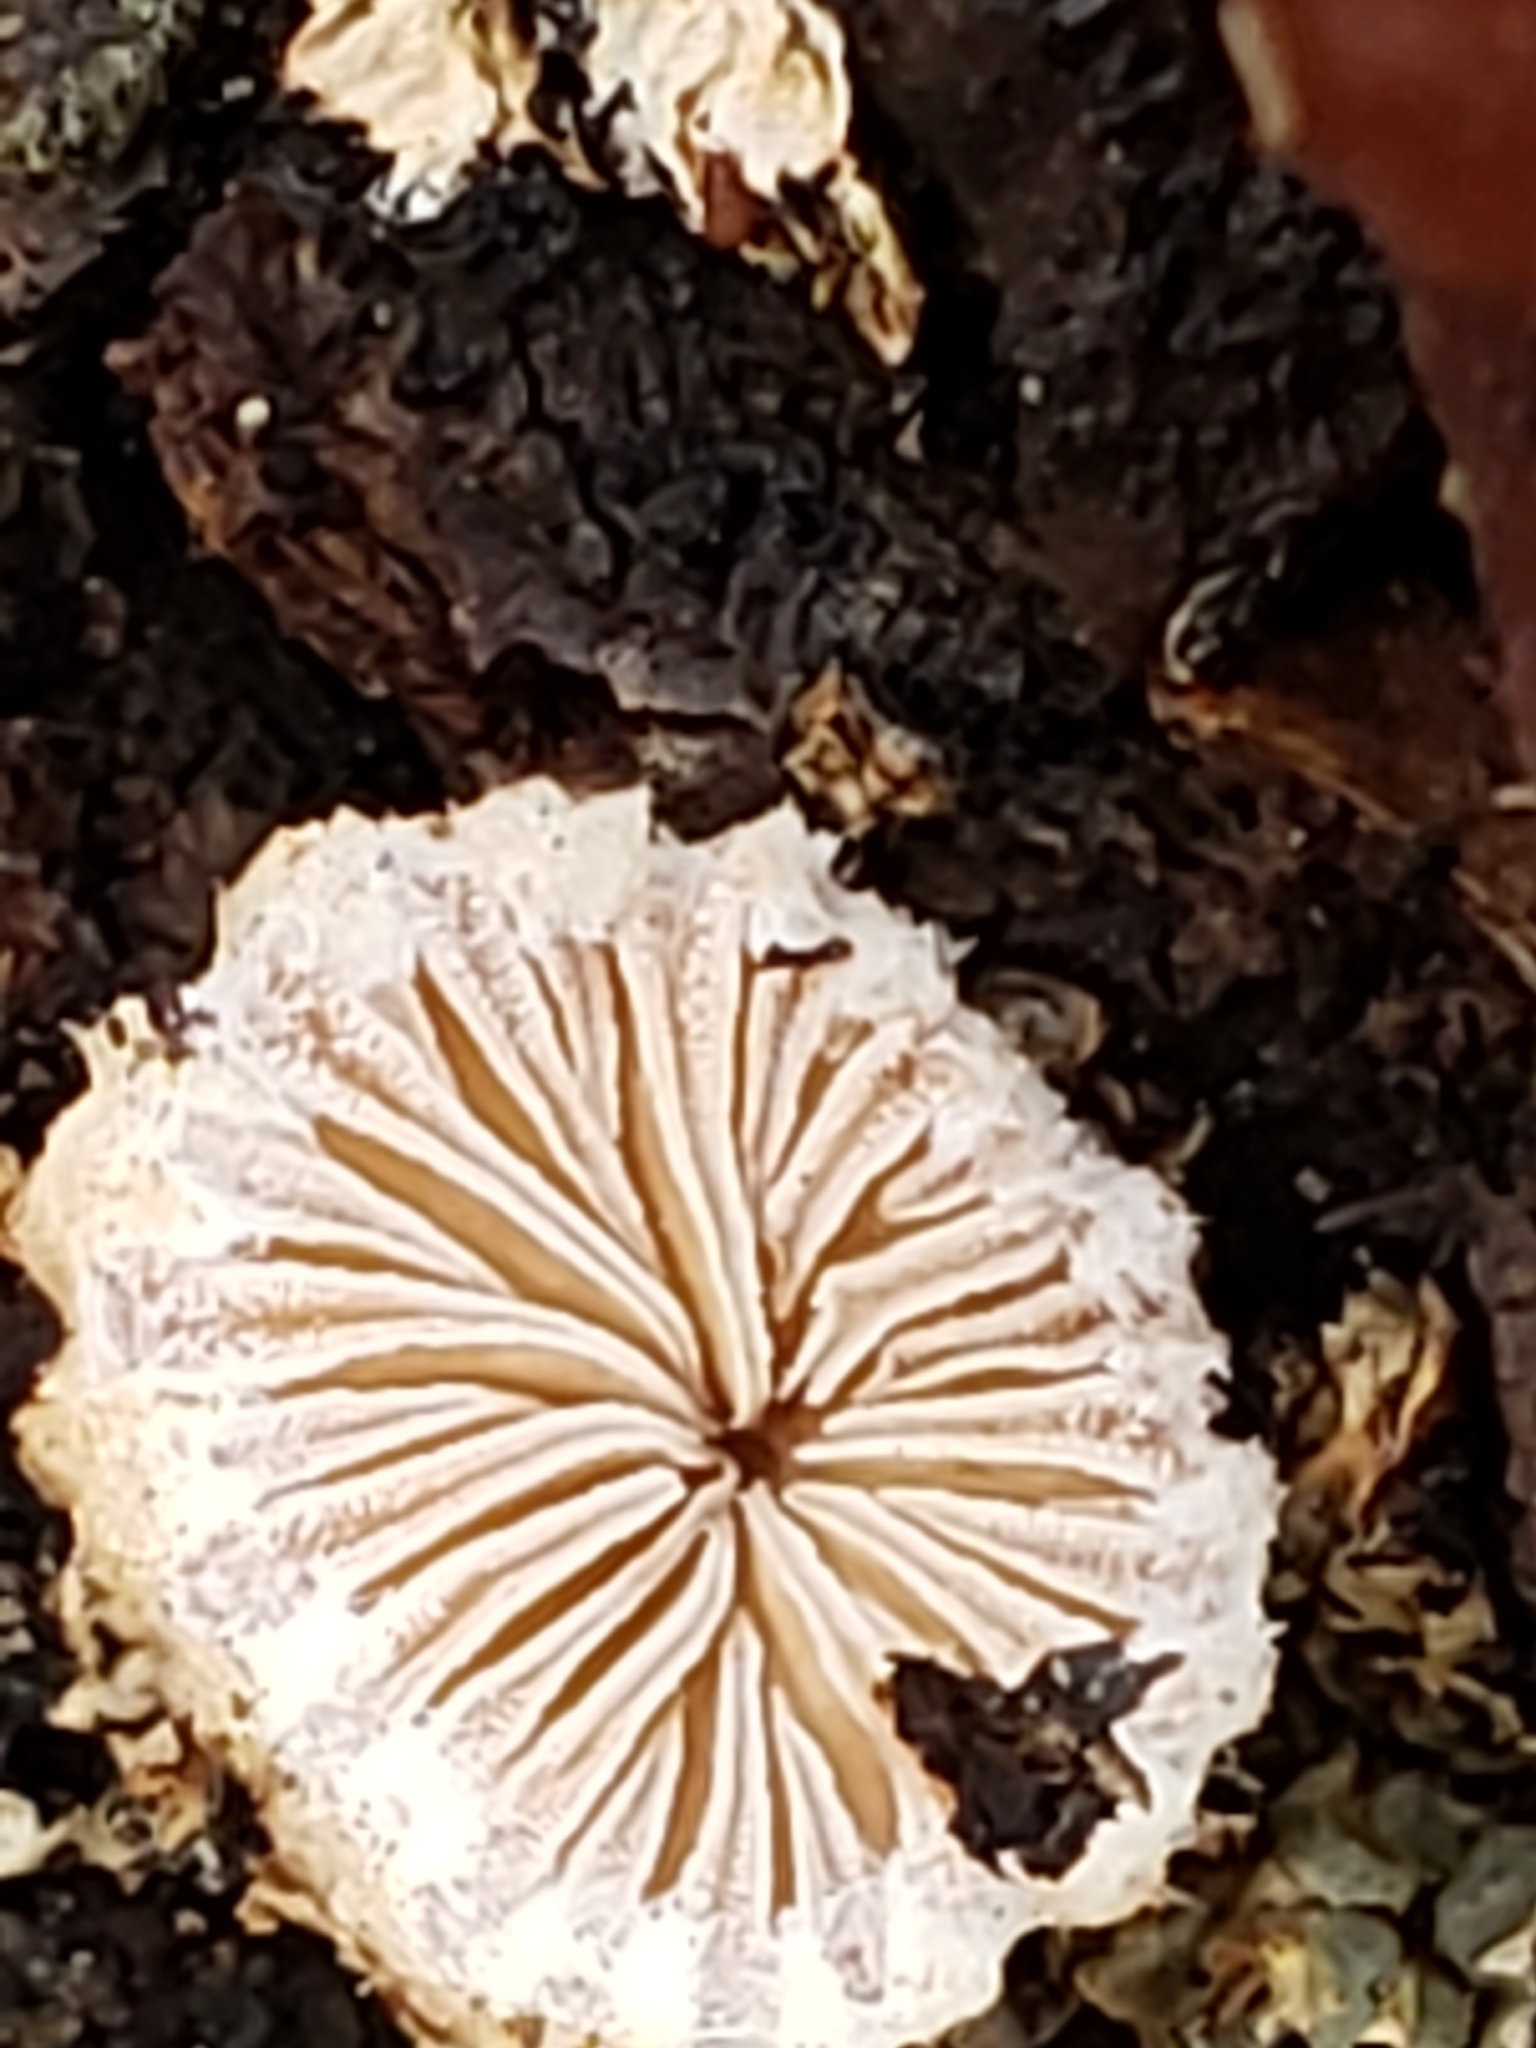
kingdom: Fungi
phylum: Basidiomycota
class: Agaricomycetes
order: Agaricales
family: Schizophyllaceae
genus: Schizophyllum
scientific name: Schizophyllum commune
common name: Common porecrust
